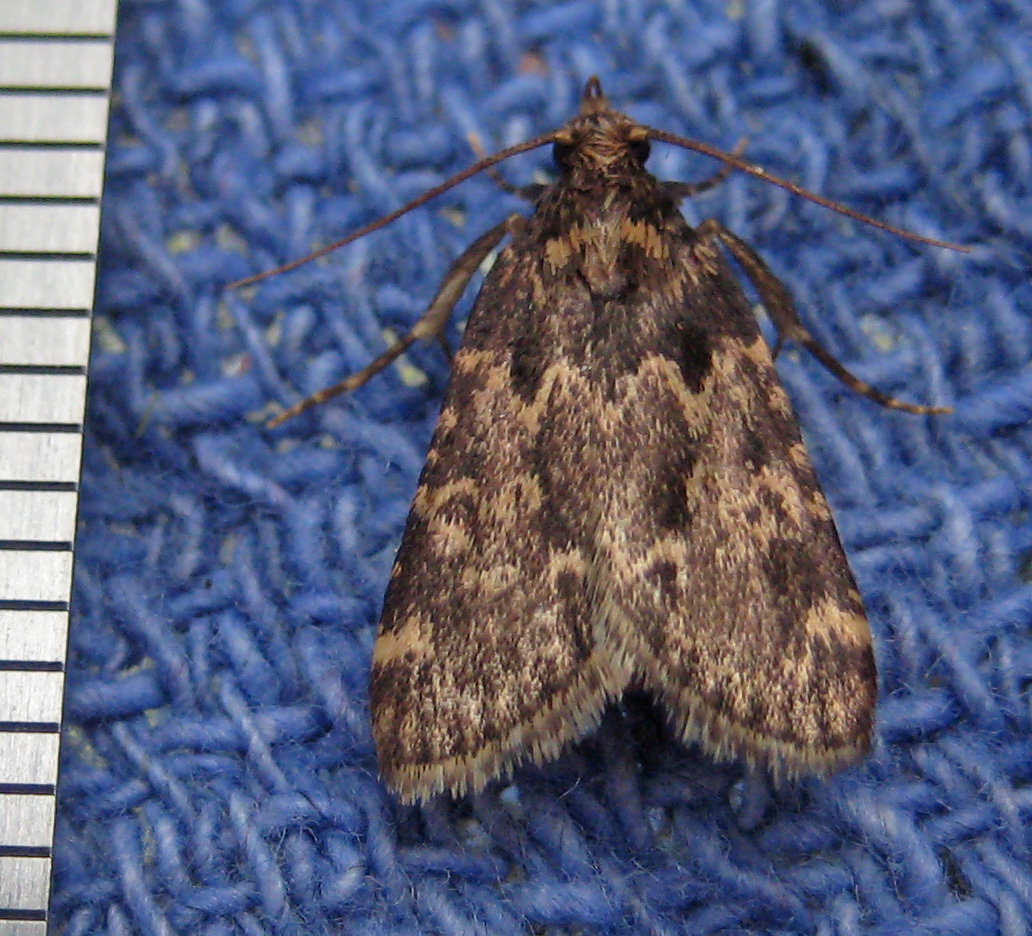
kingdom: Animalia
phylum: Arthropoda
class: Insecta
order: Lepidoptera
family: Pyralidae
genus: Aglossa
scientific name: Aglossa caprealis
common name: Small tabby
